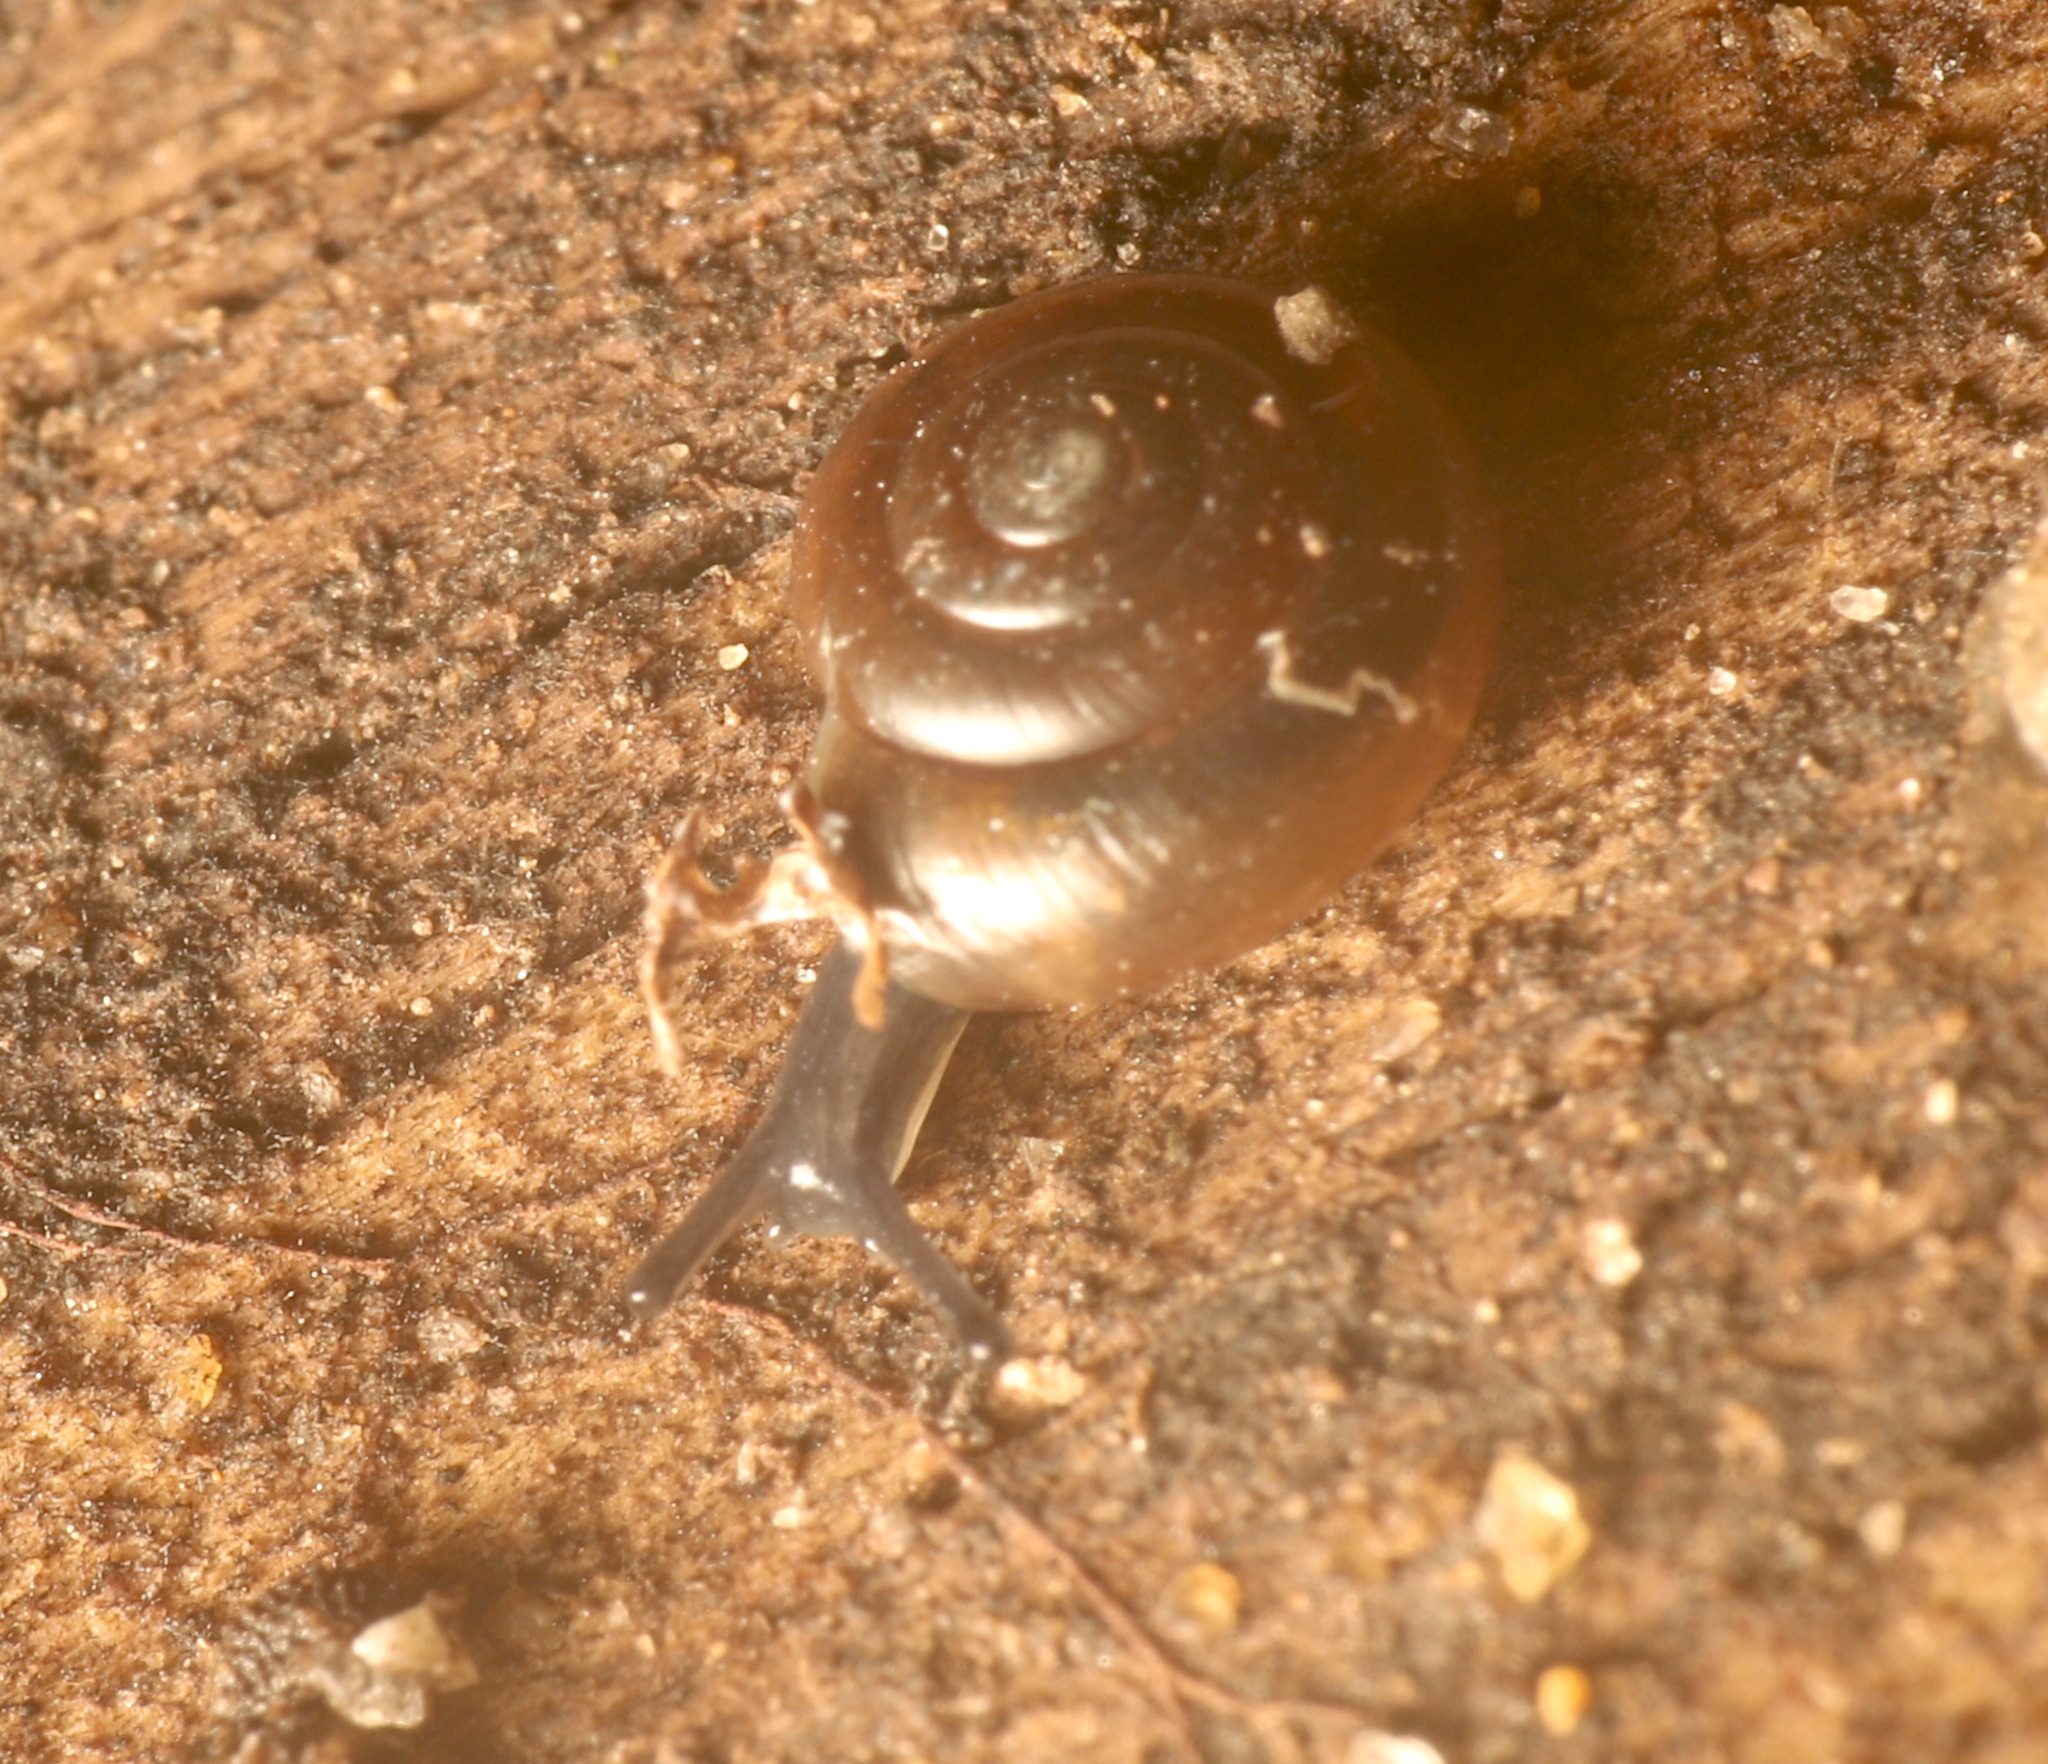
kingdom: Animalia
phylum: Mollusca
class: Gastropoda
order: Stylommatophora
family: Gastrodontidae
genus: Zonitoides
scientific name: Zonitoides arboreus
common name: Quick gloss
